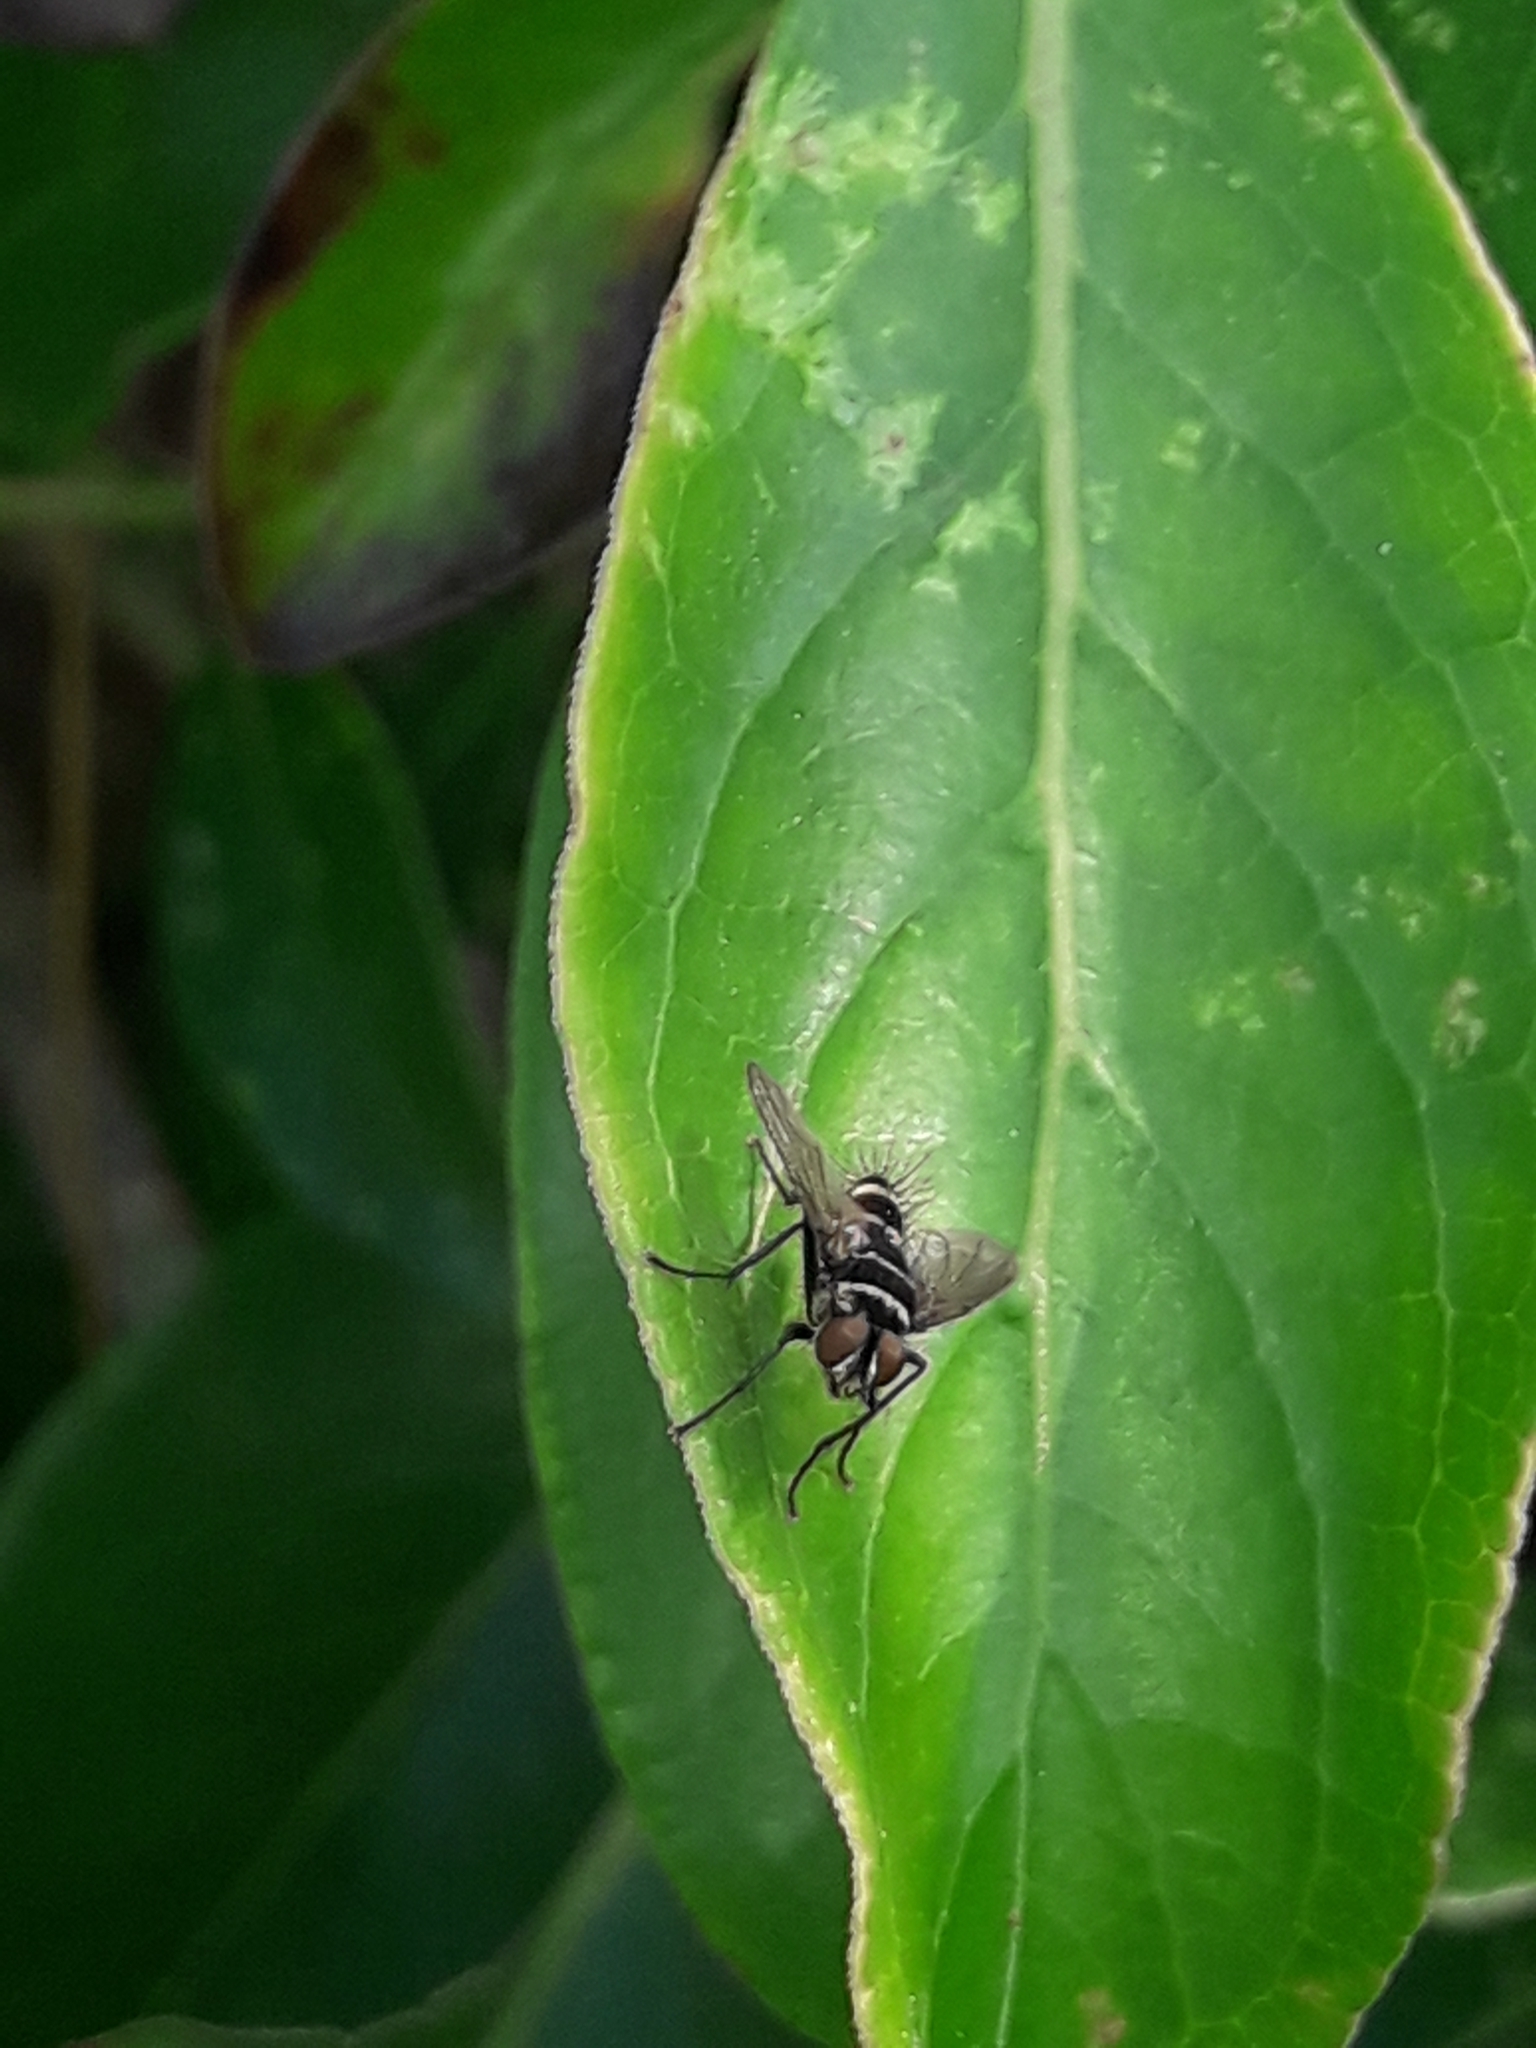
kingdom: Animalia
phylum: Arthropoda
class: Insecta
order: Diptera
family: Tachinidae
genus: Trigonospila
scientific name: Trigonospila brevifacies
